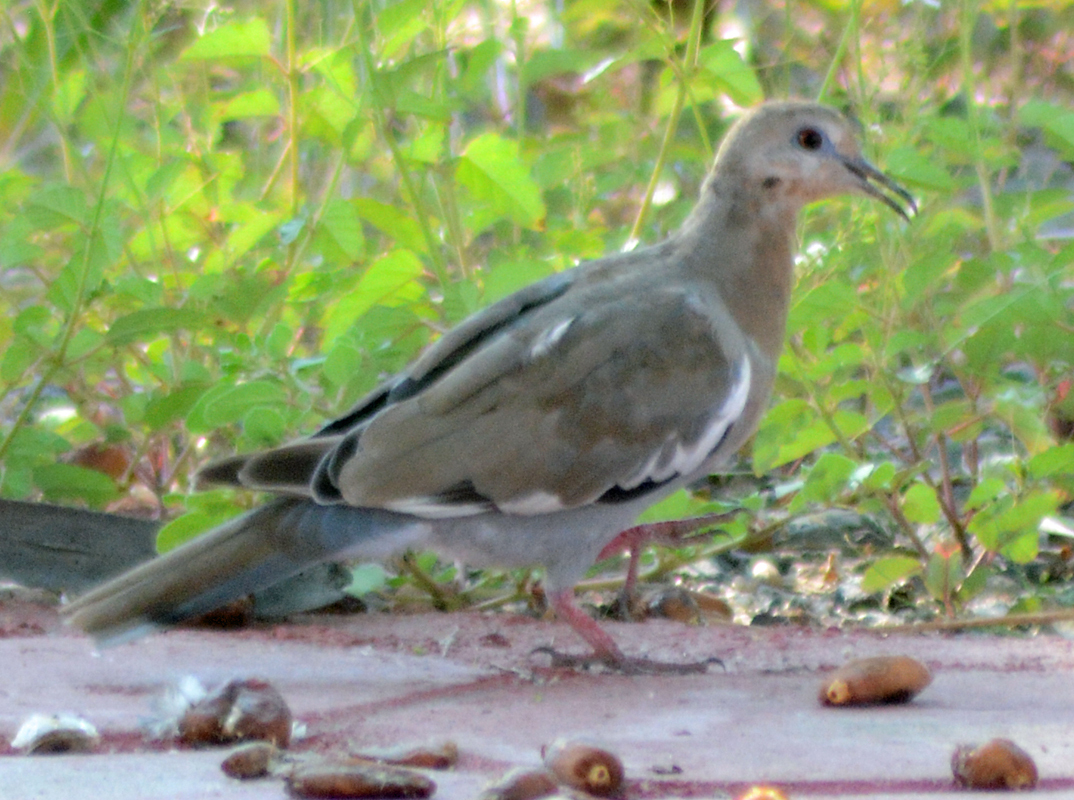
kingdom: Animalia
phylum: Chordata
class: Aves
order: Columbiformes
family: Columbidae
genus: Zenaida
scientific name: Zenaida asiatica
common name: White-winged dove
